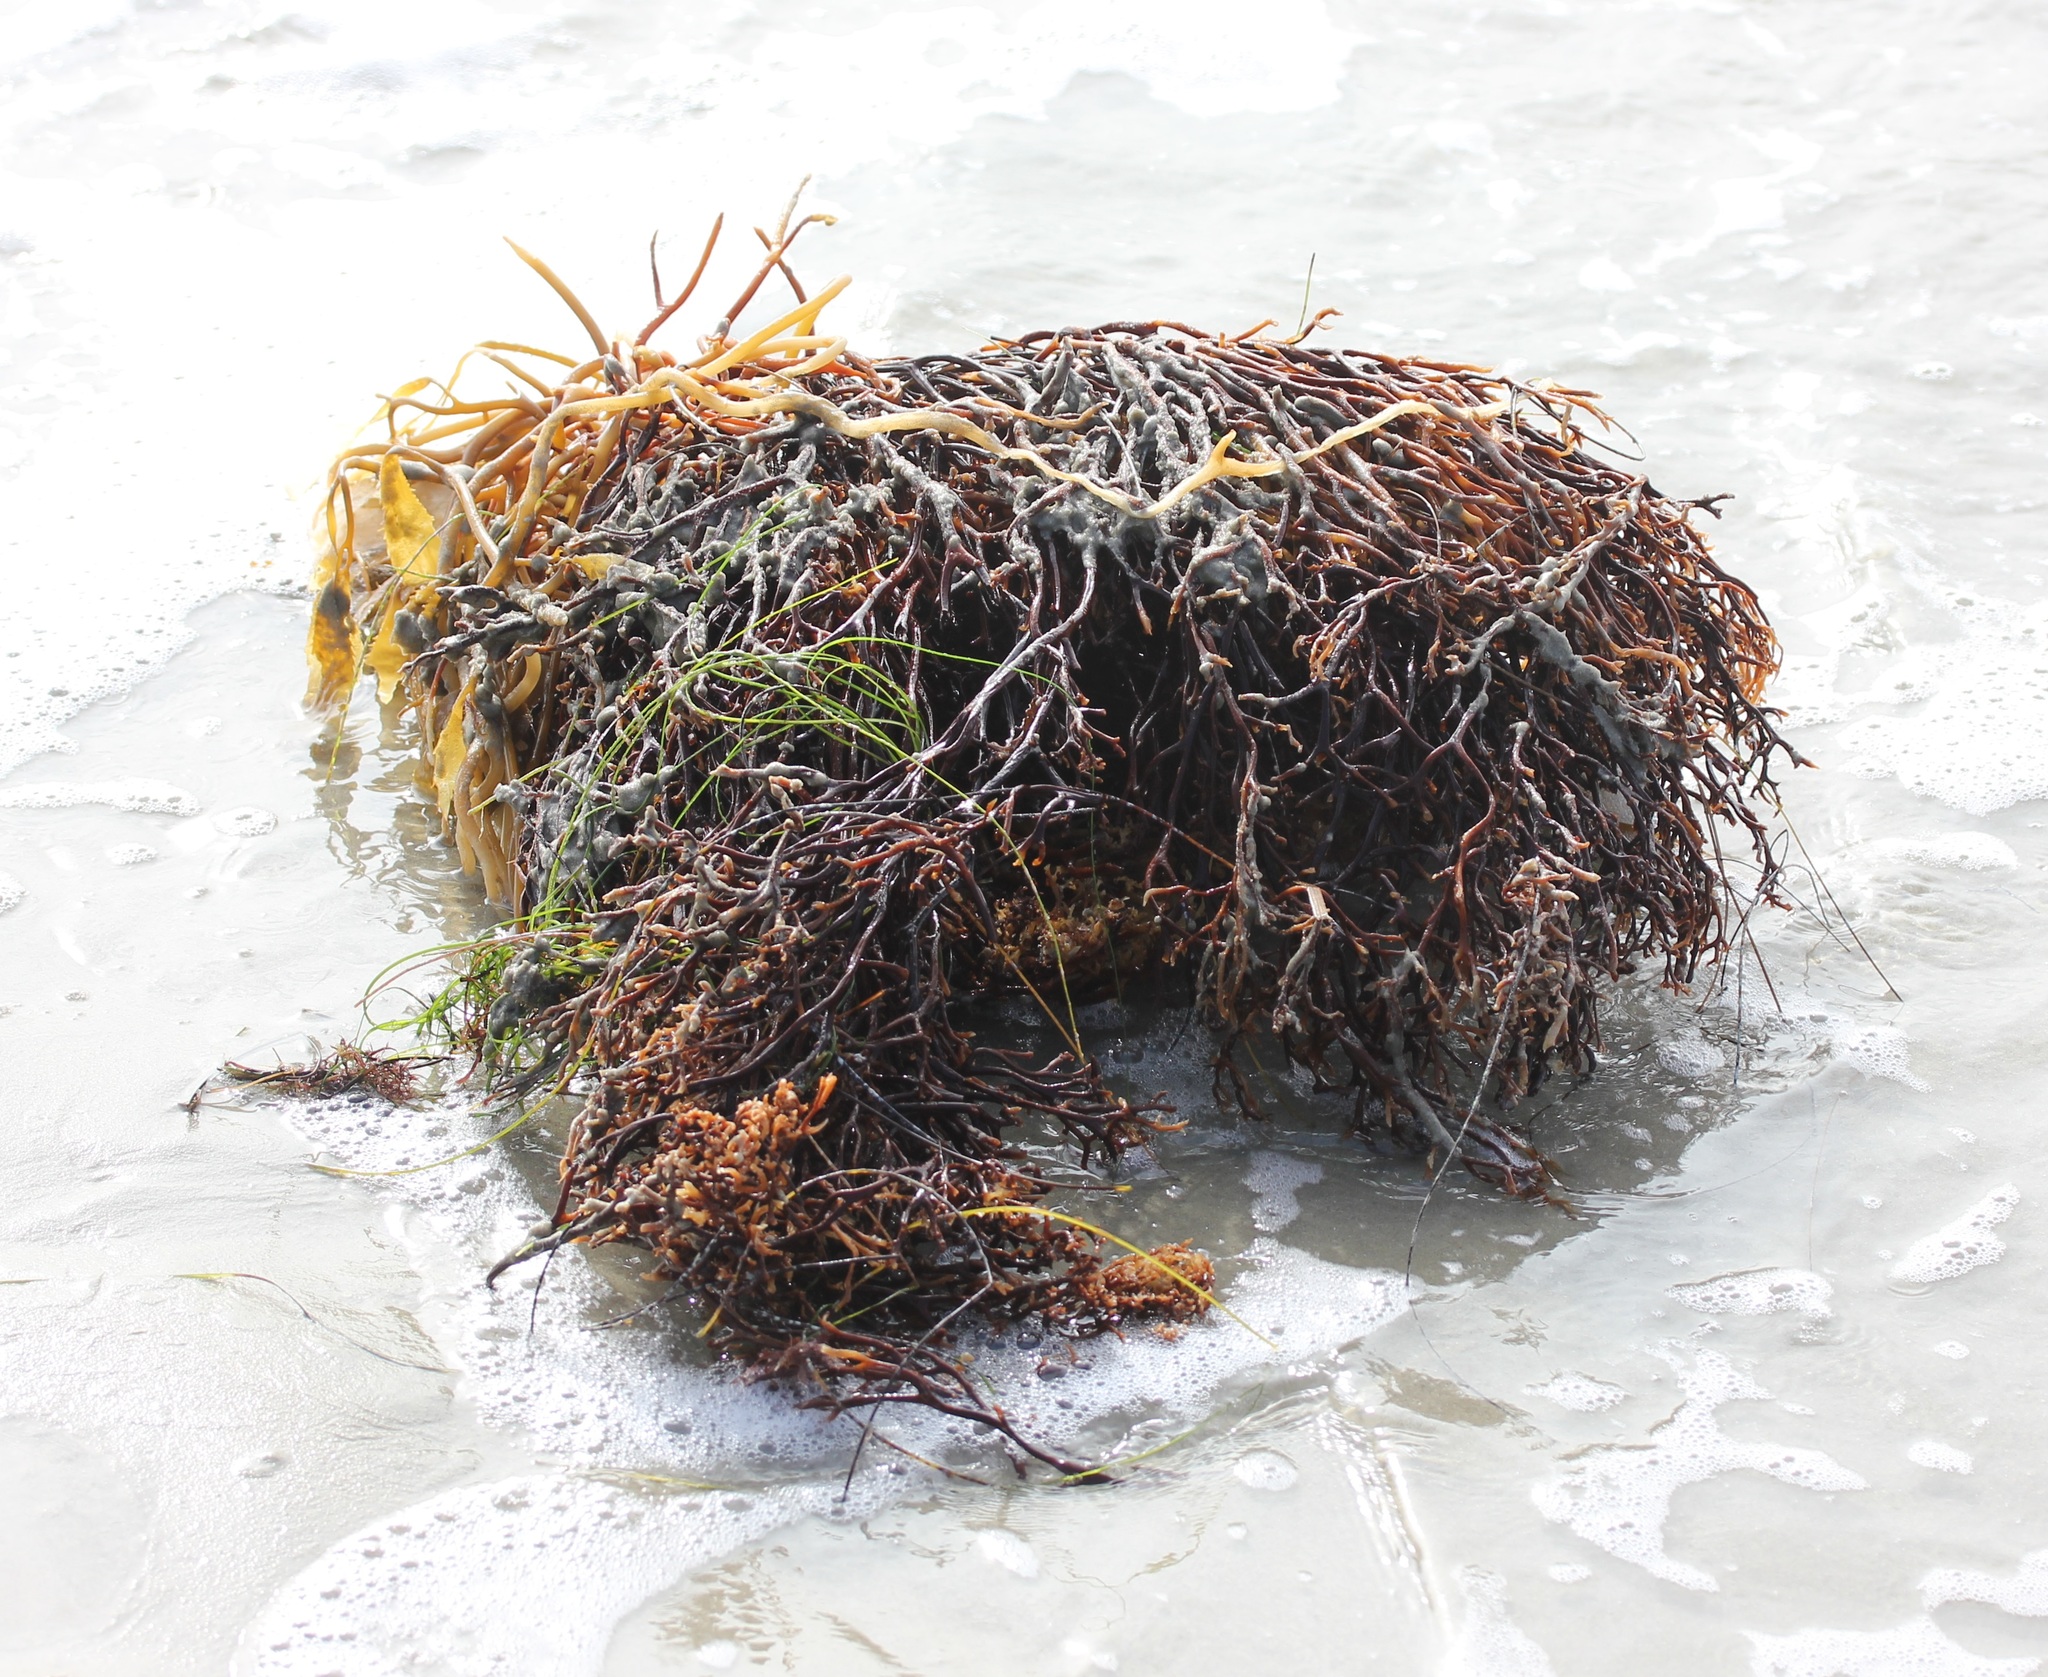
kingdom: Chromista
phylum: Ochrophyta
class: Phaeophyceae
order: Laminariales
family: Laminariaceae
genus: Macrocystis
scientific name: Macrocystis pyrifera
